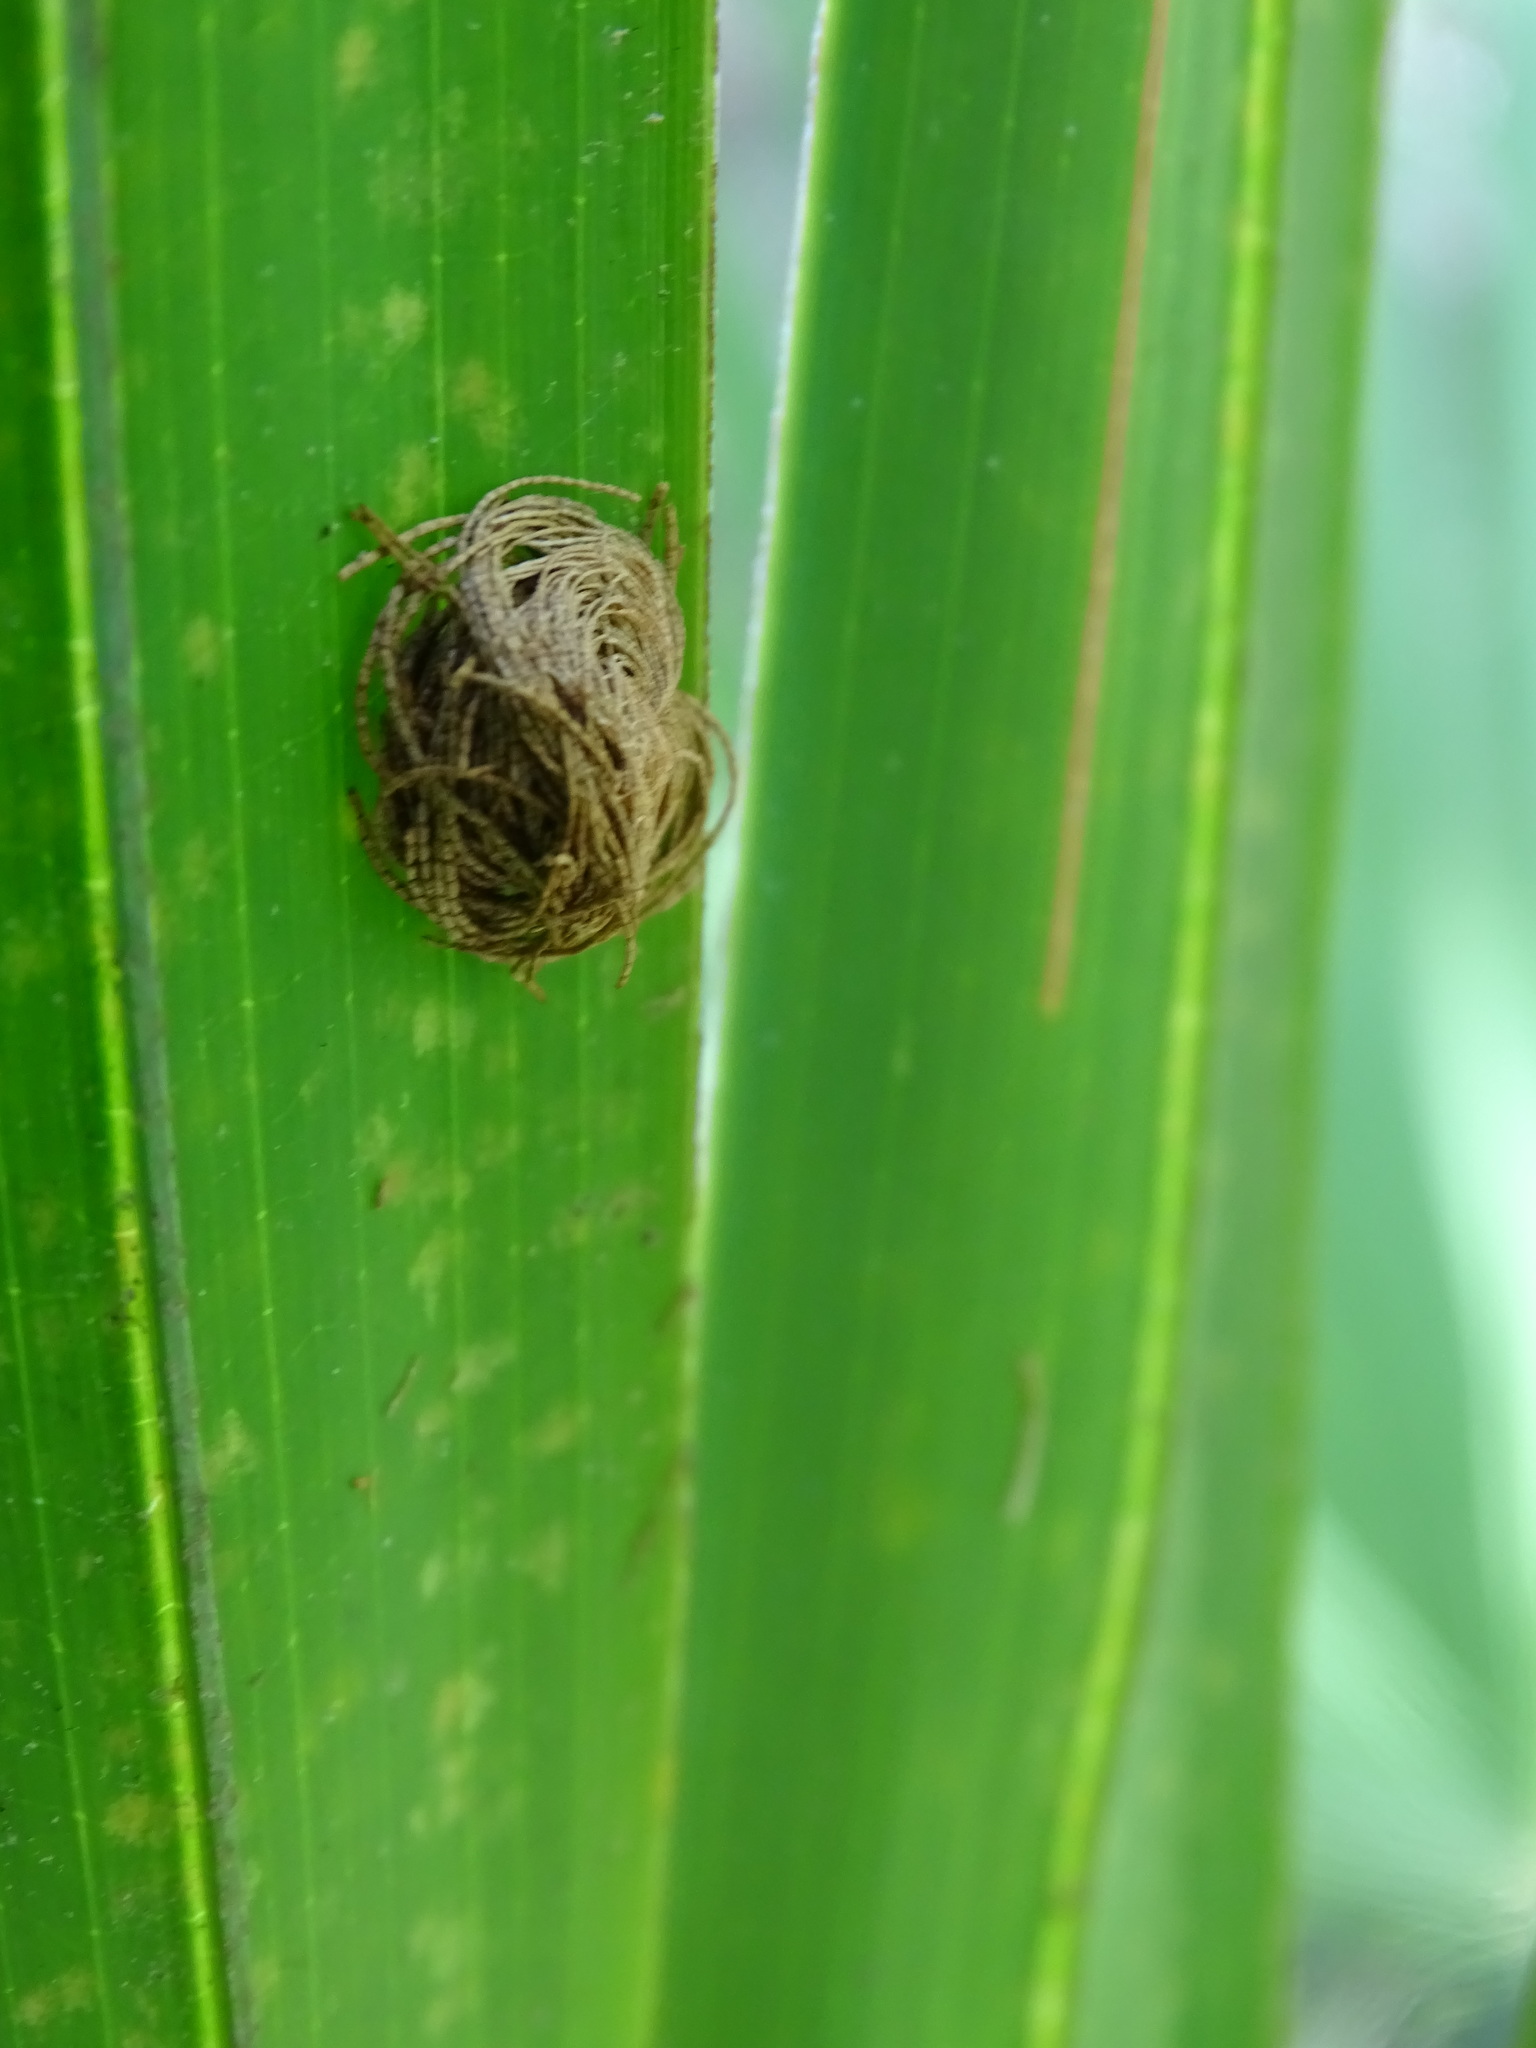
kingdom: Animalia
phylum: Arthropoda
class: Insecta
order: Coleoptera
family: Chrysomelidae
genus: Hemisphaerota
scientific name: Hemisphaerota cyanea
